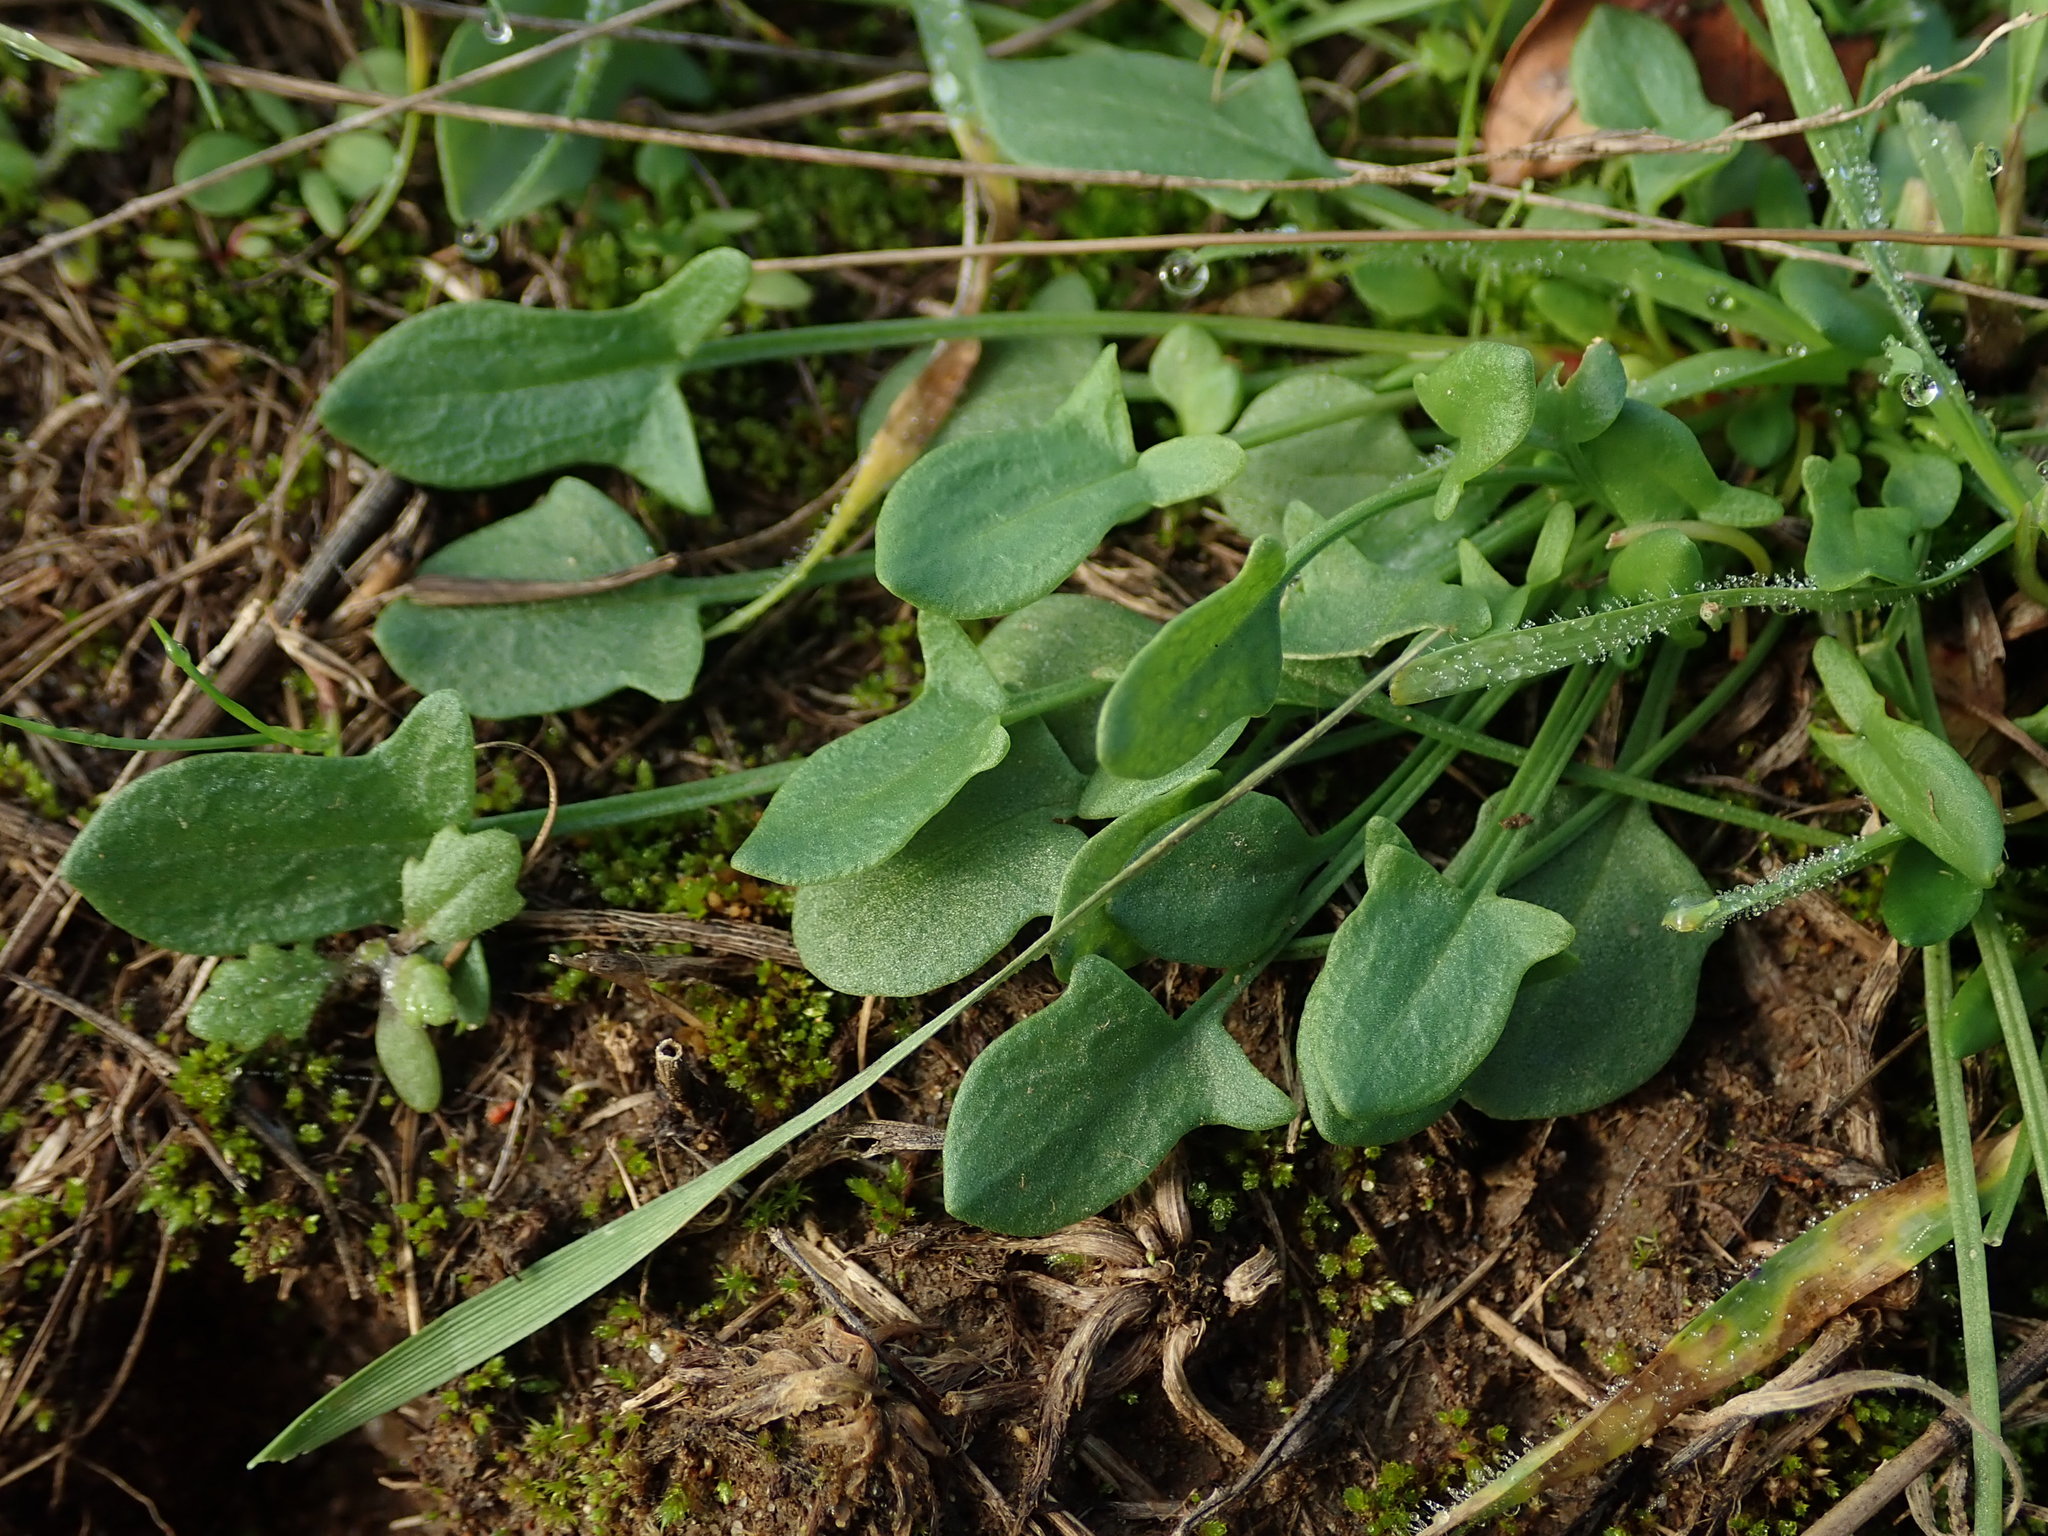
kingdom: Plantae
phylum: Tracheophyta
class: Magnoliopsida
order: Caryophyllales
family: Polygonaceae
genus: Rumex
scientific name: Rumex acetosella
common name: Common sheep sorrel
